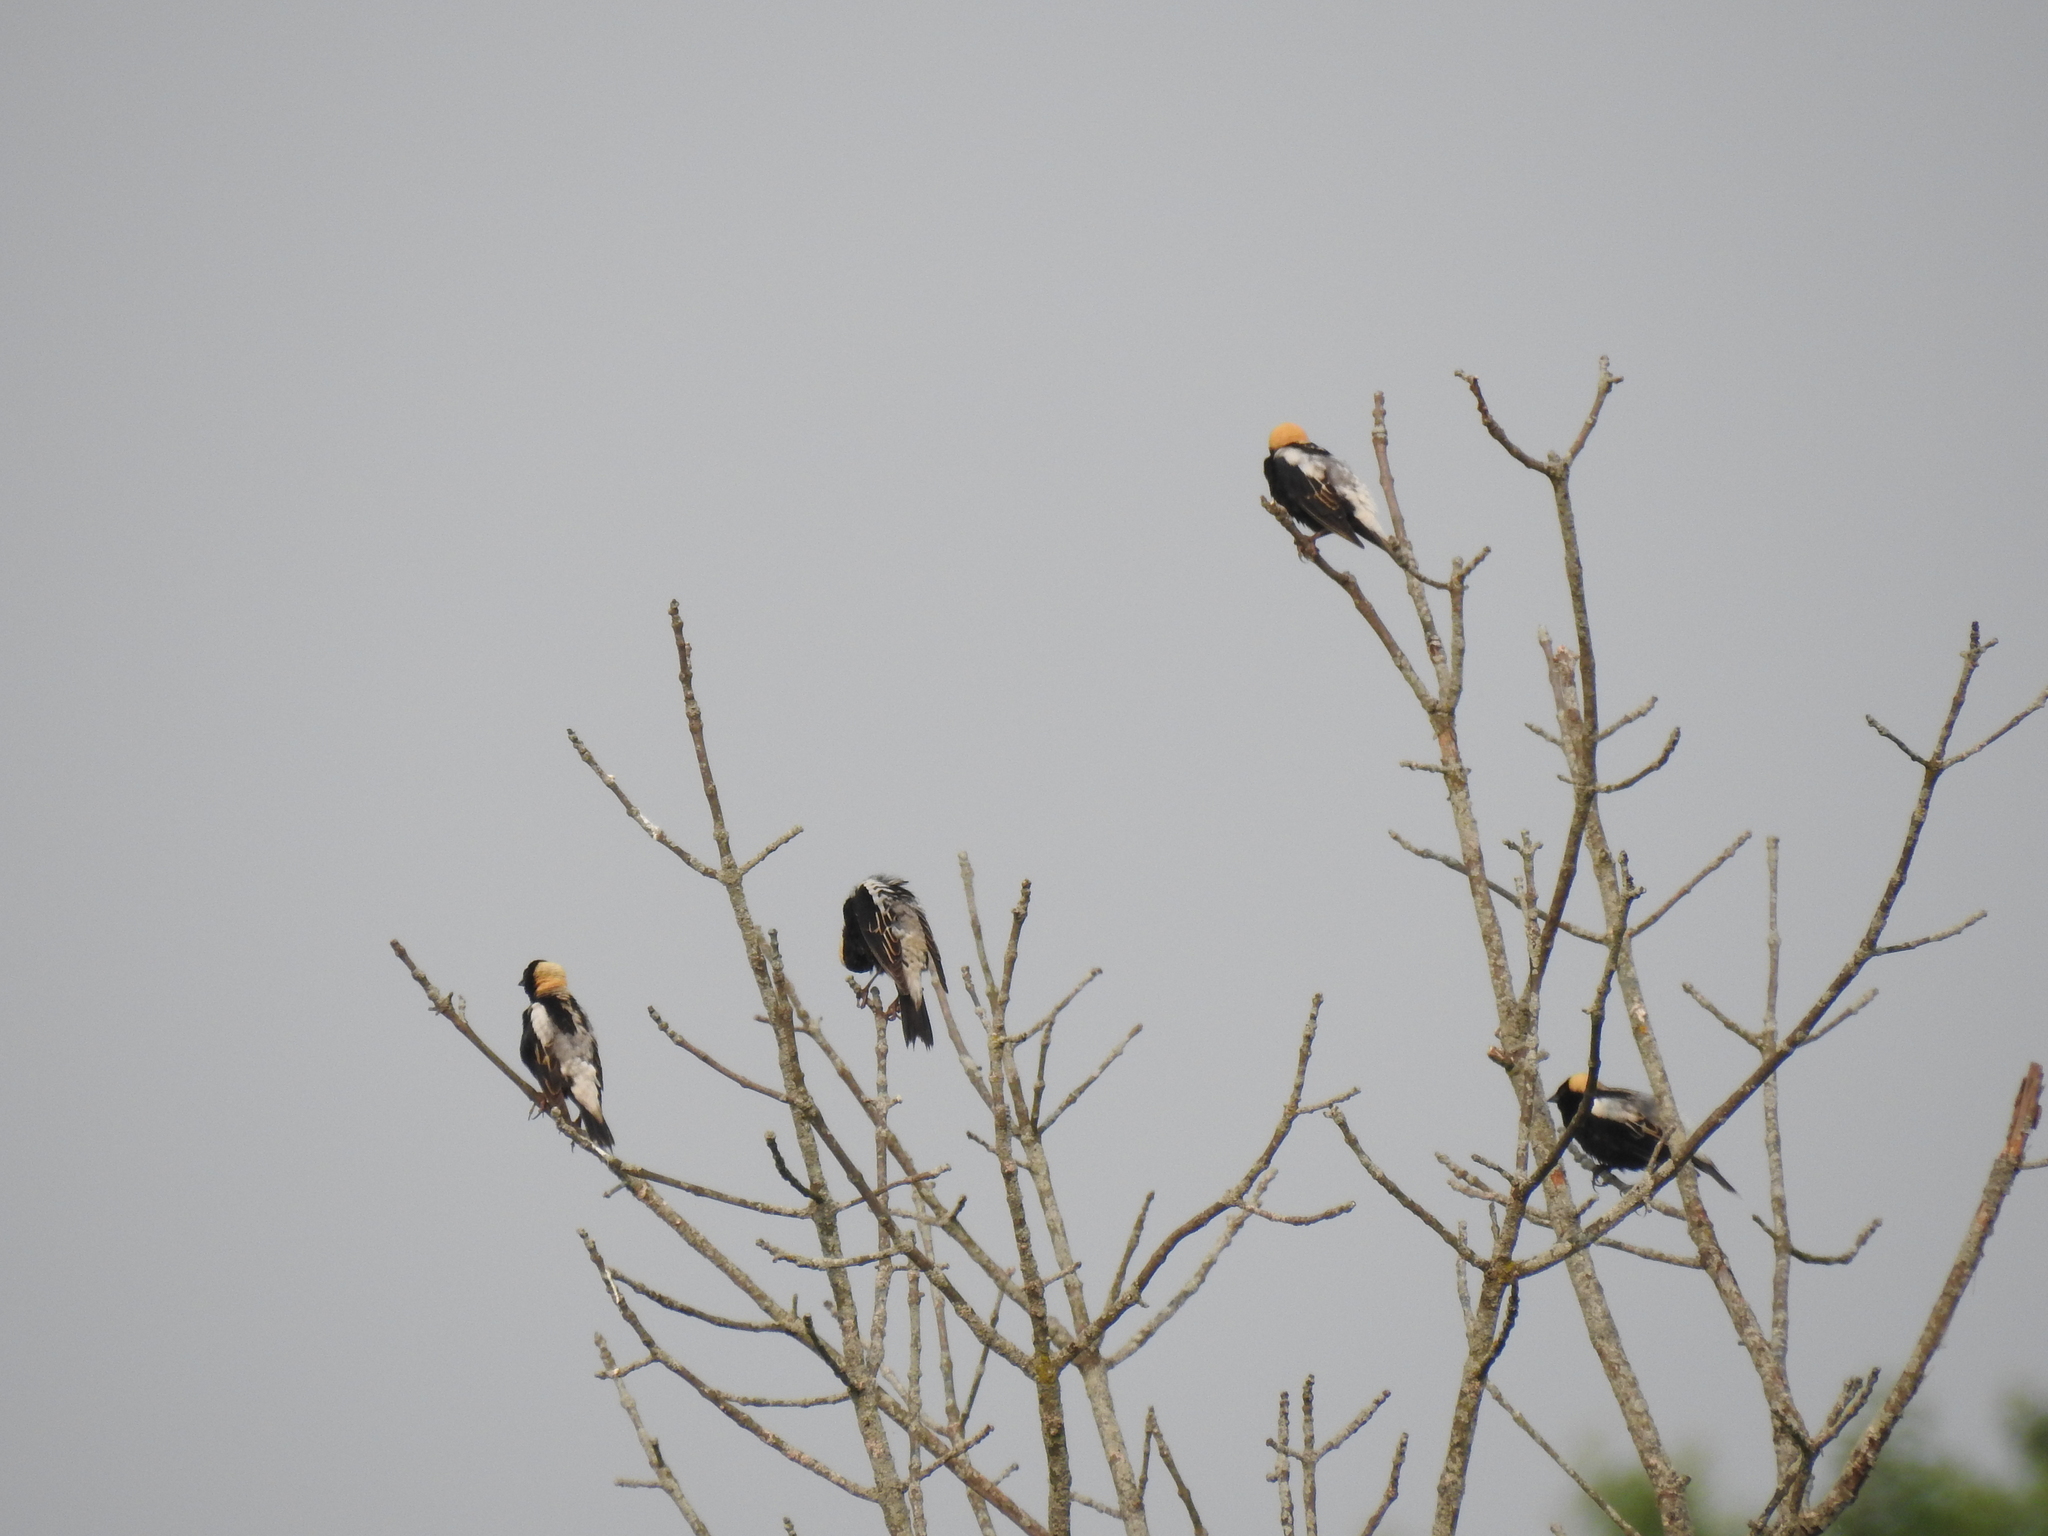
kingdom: Animalia
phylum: Chordata
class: Aves
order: Passeriformes
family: Icteridae
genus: Dolichonyx
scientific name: Dolichonyx oryzivorus
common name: Bobolink
